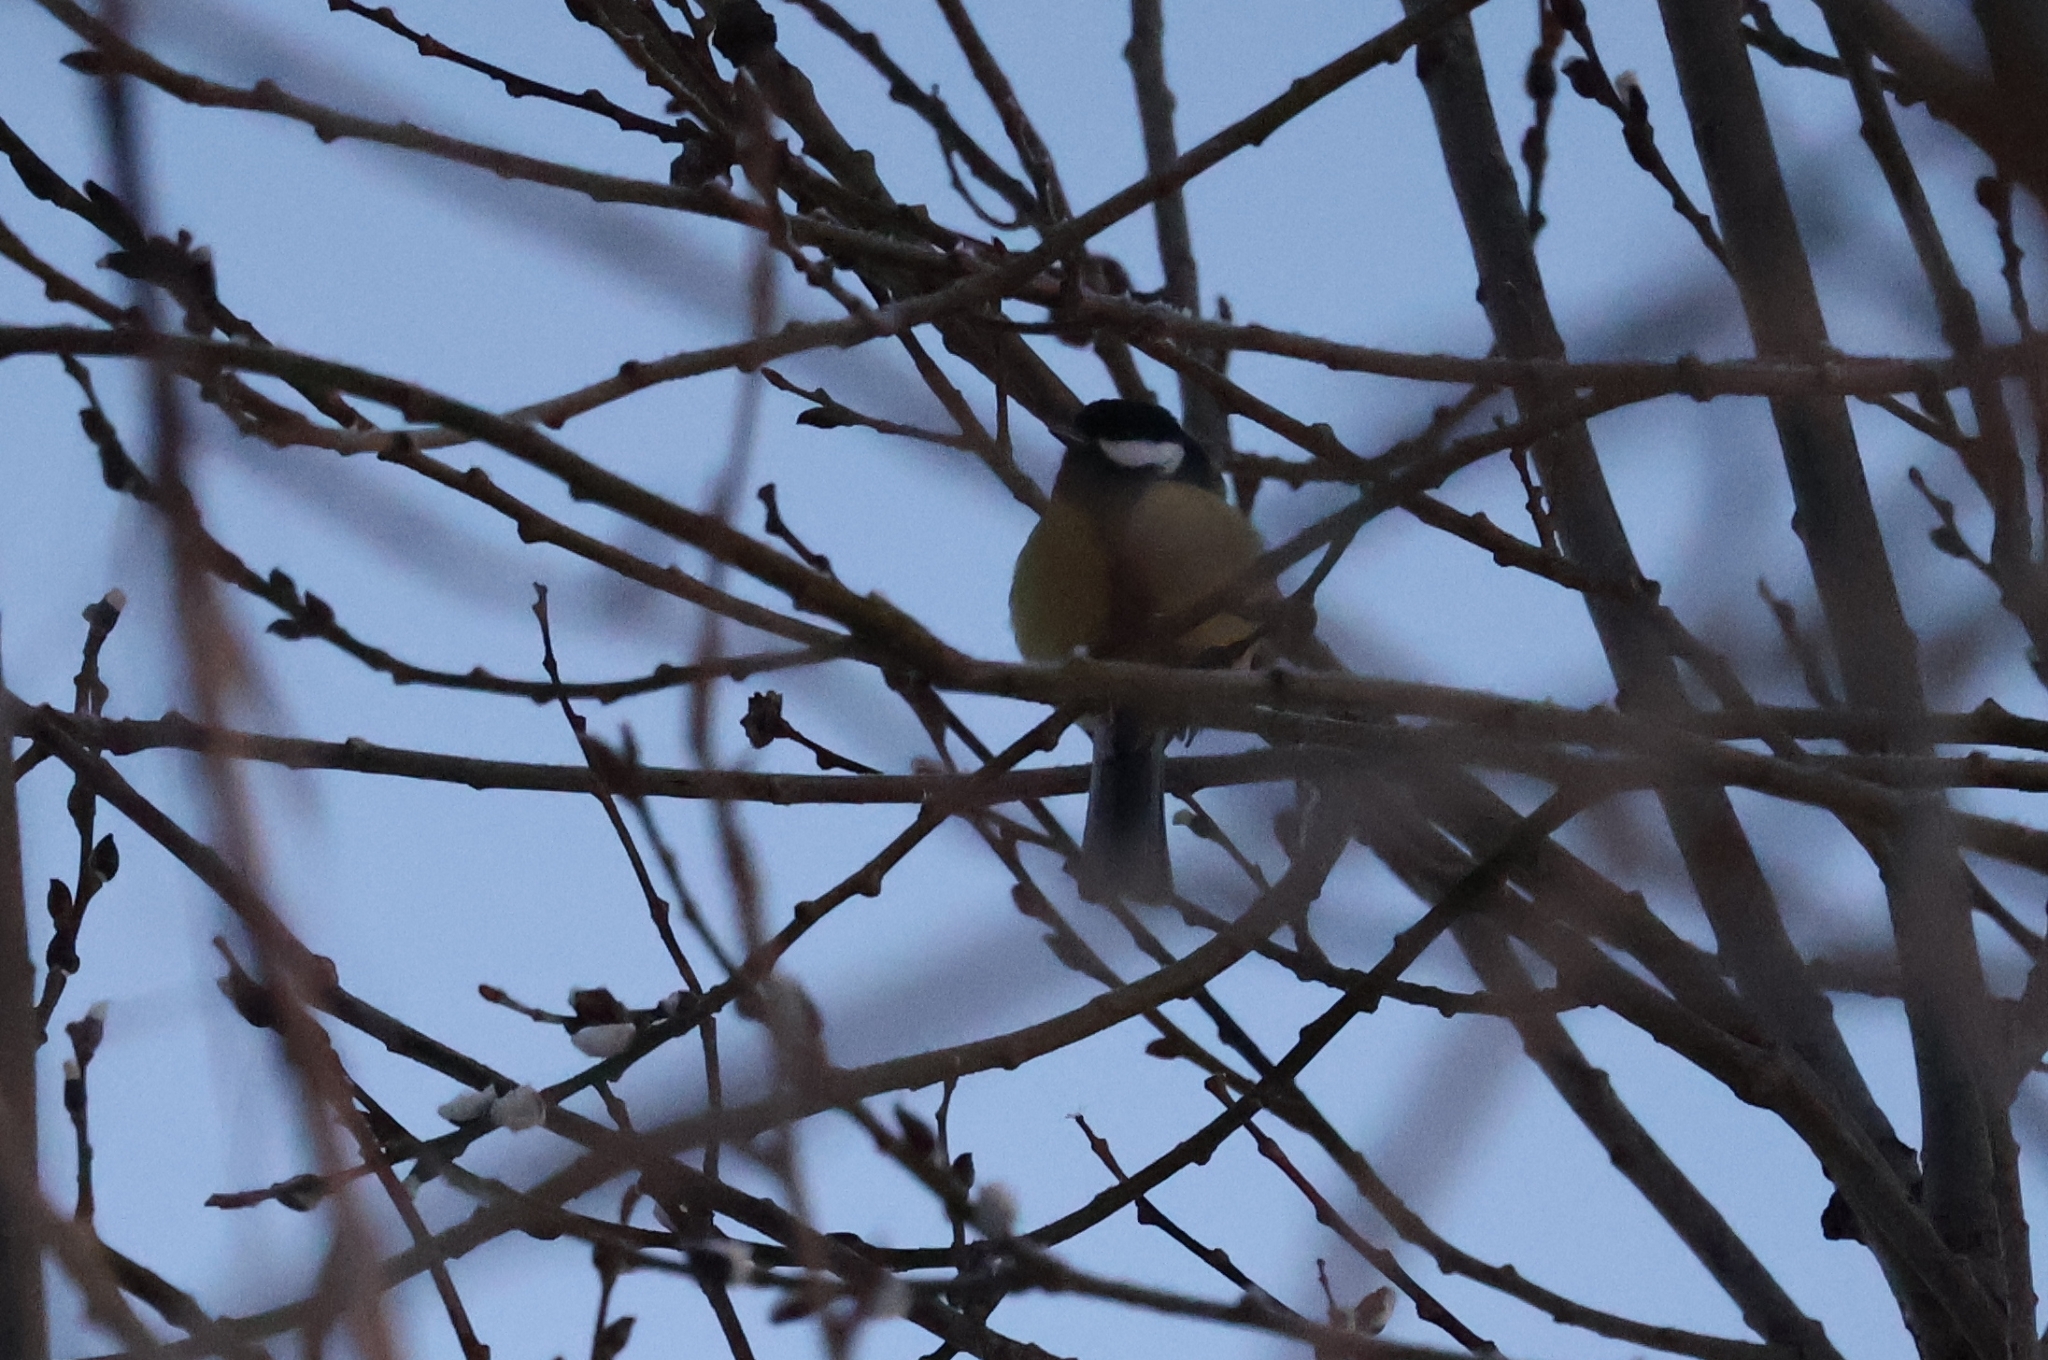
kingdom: Animalia
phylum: Chordata
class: Aves
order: Passeriformes
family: Paridae
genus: Parus
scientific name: Parus major
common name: Great tit
